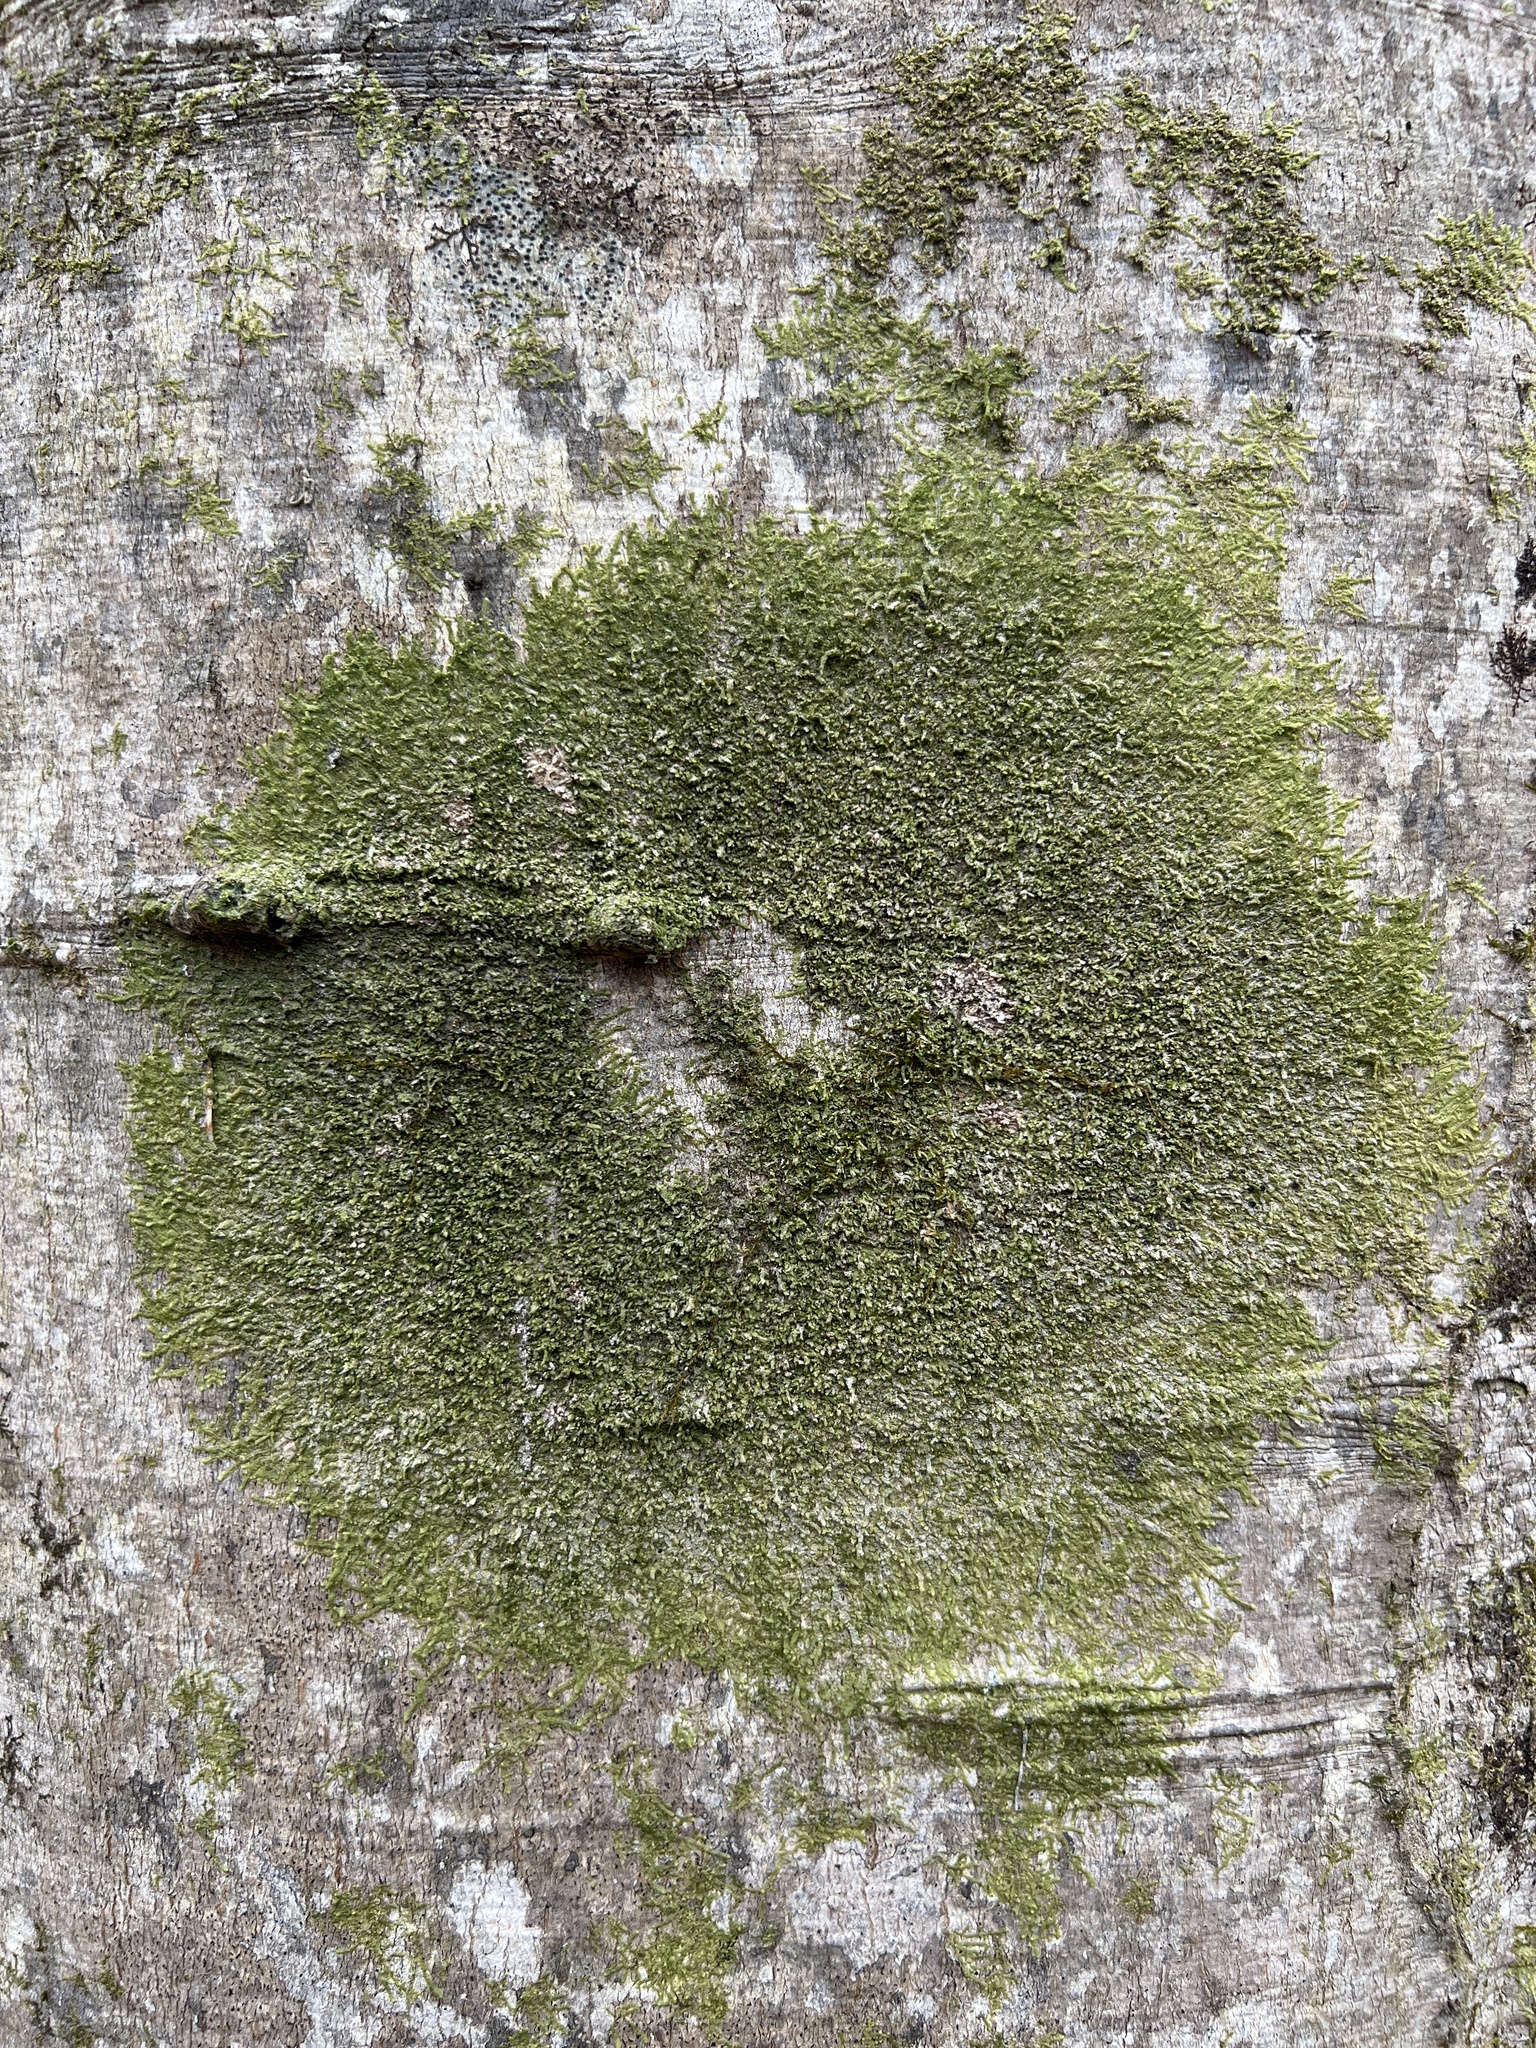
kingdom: Plantae
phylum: Marchantiophyta
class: Jungermanniopsida
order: Porellales
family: Radulaceae
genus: Radula
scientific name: Radula complanata
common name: Flat-leaved scalewort
